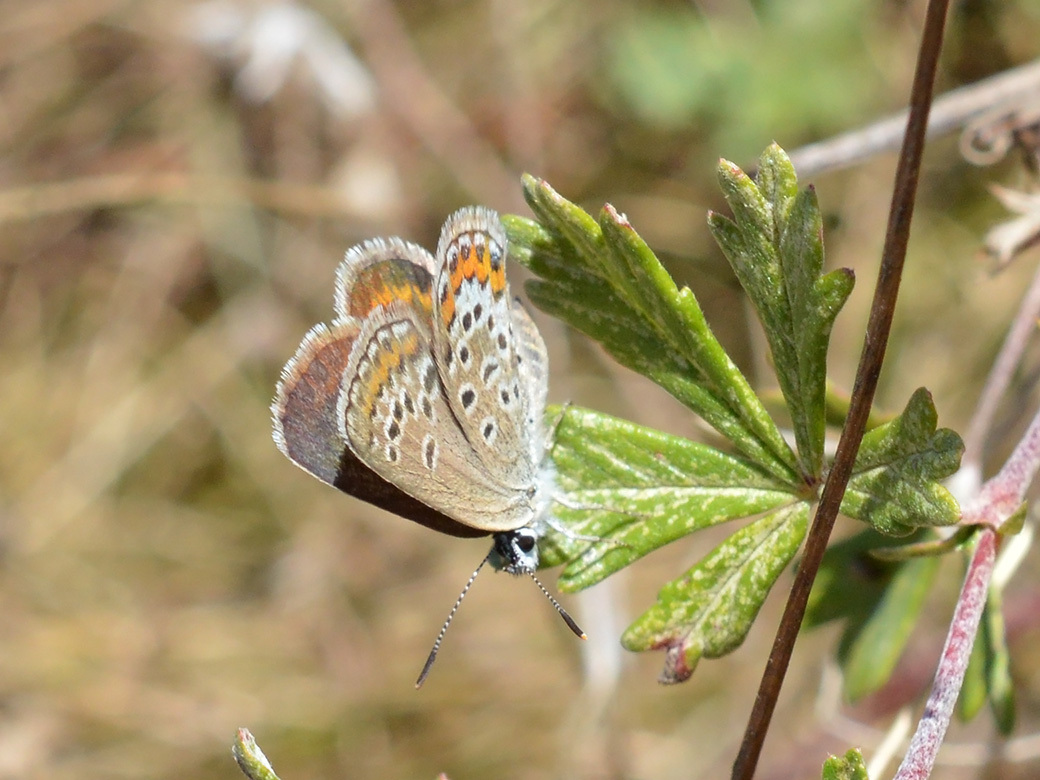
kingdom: Animalia
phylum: Arthropoda
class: Insecta
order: Lepidoptera
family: Lycaenidae
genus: Plebejus
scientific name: Plebejus argus
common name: Silver-studded blue
